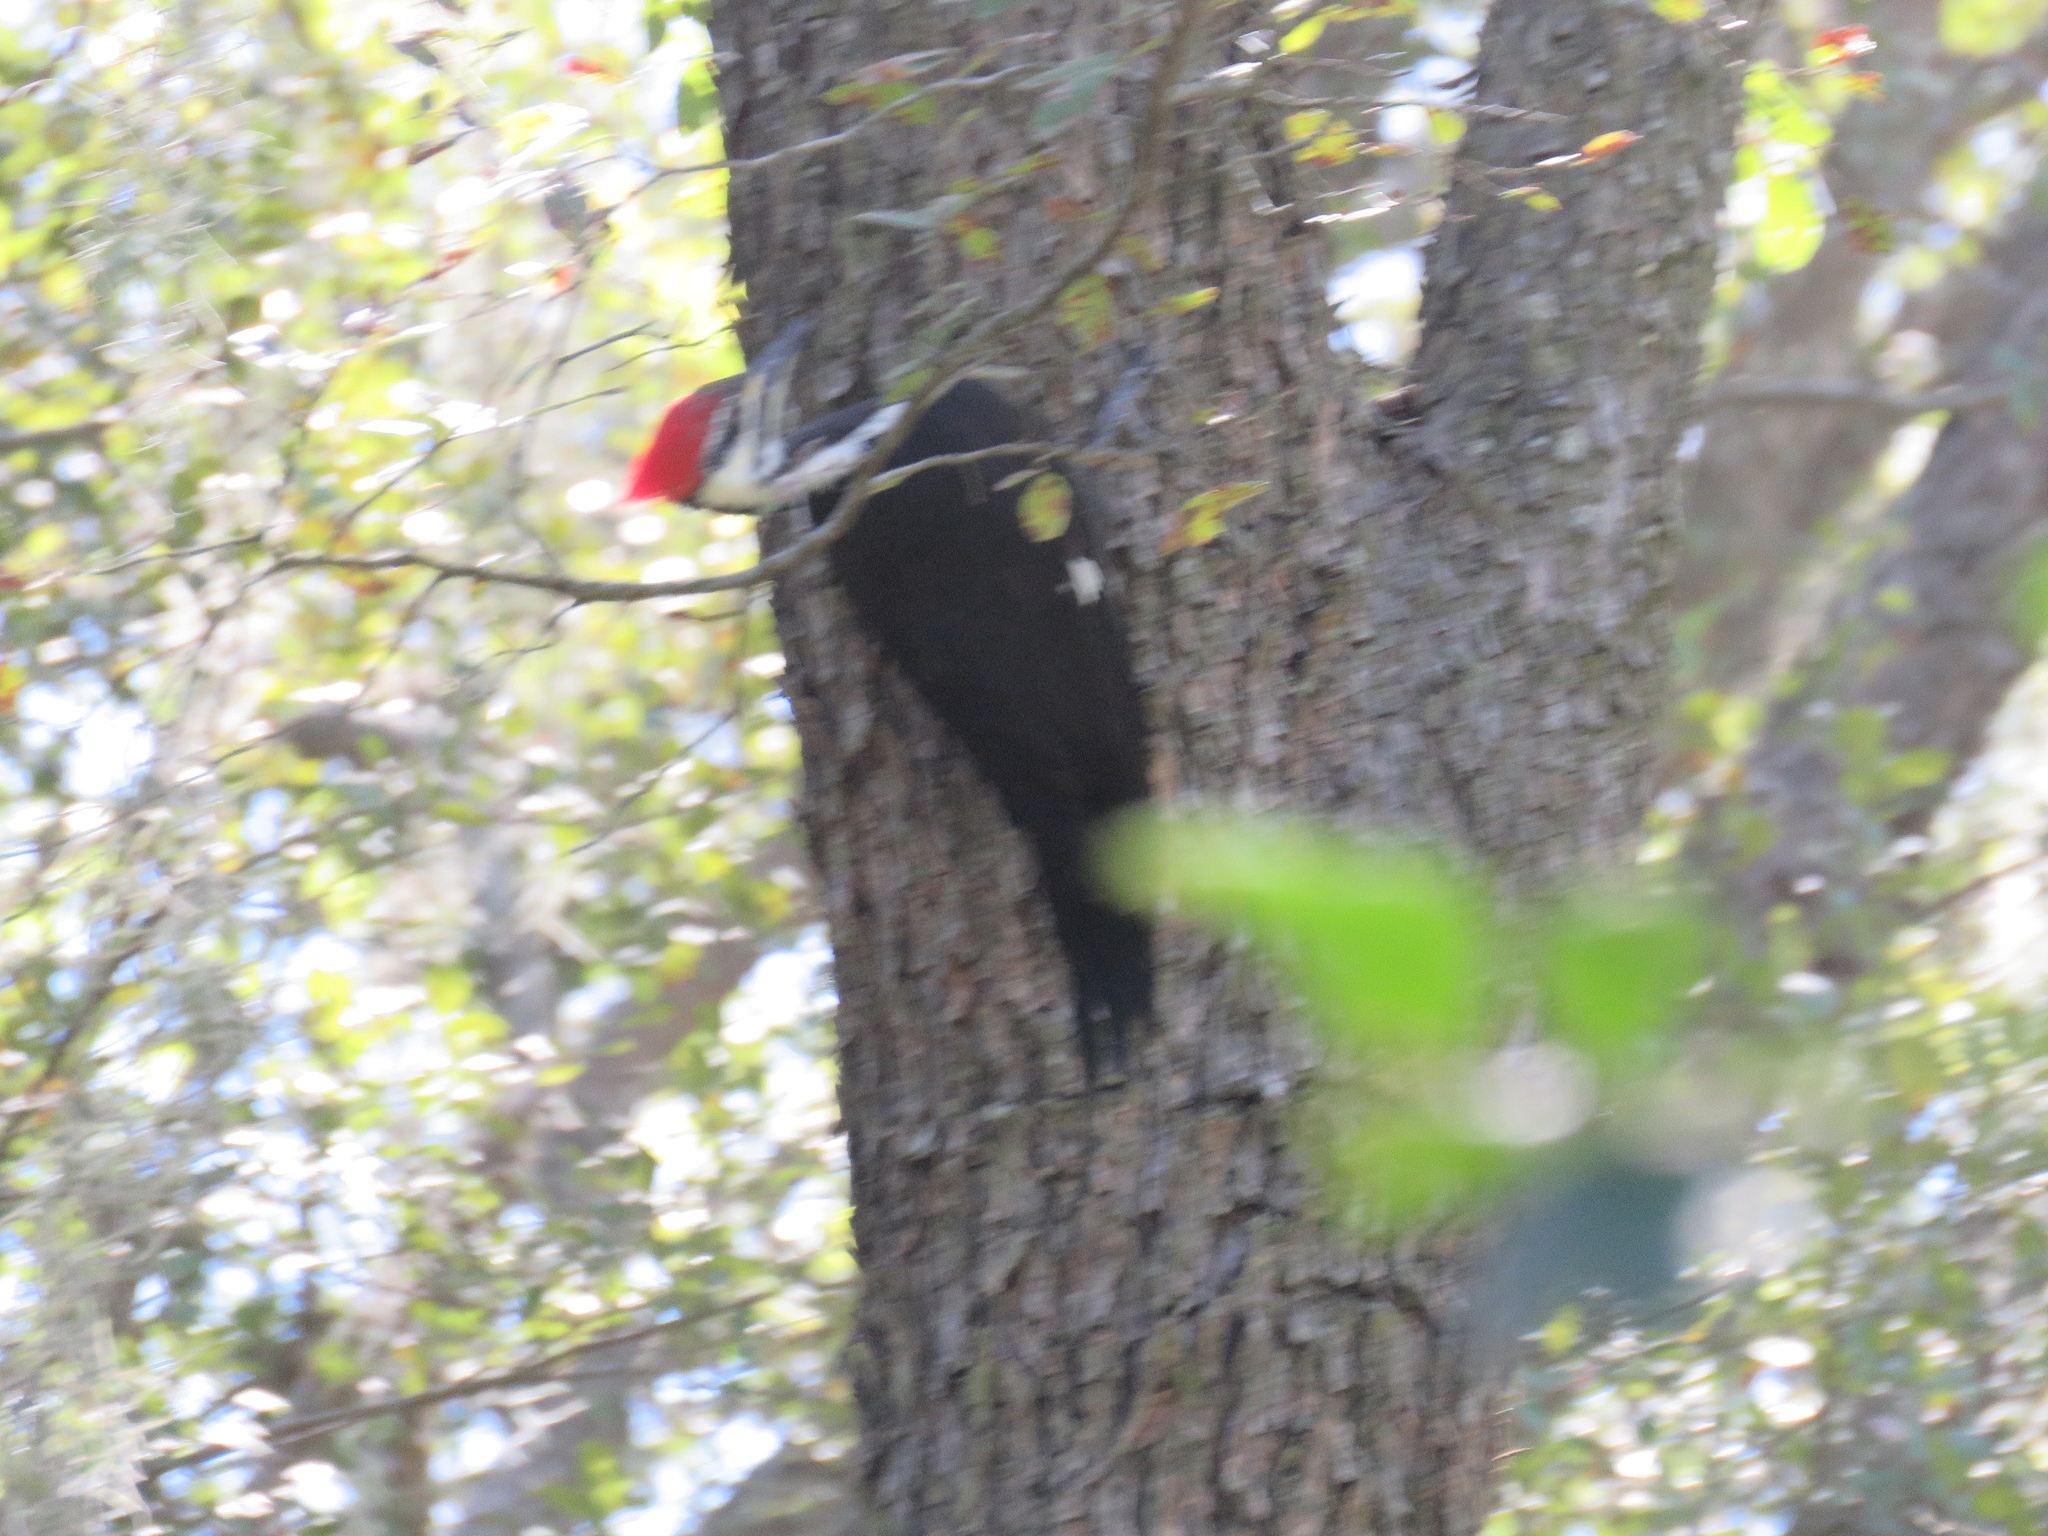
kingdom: Animalia
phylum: Chordata
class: Aves
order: Piciformes
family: Picidae
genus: Dryocopus
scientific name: Dryocopus pileatus
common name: Pileated woodpecker
